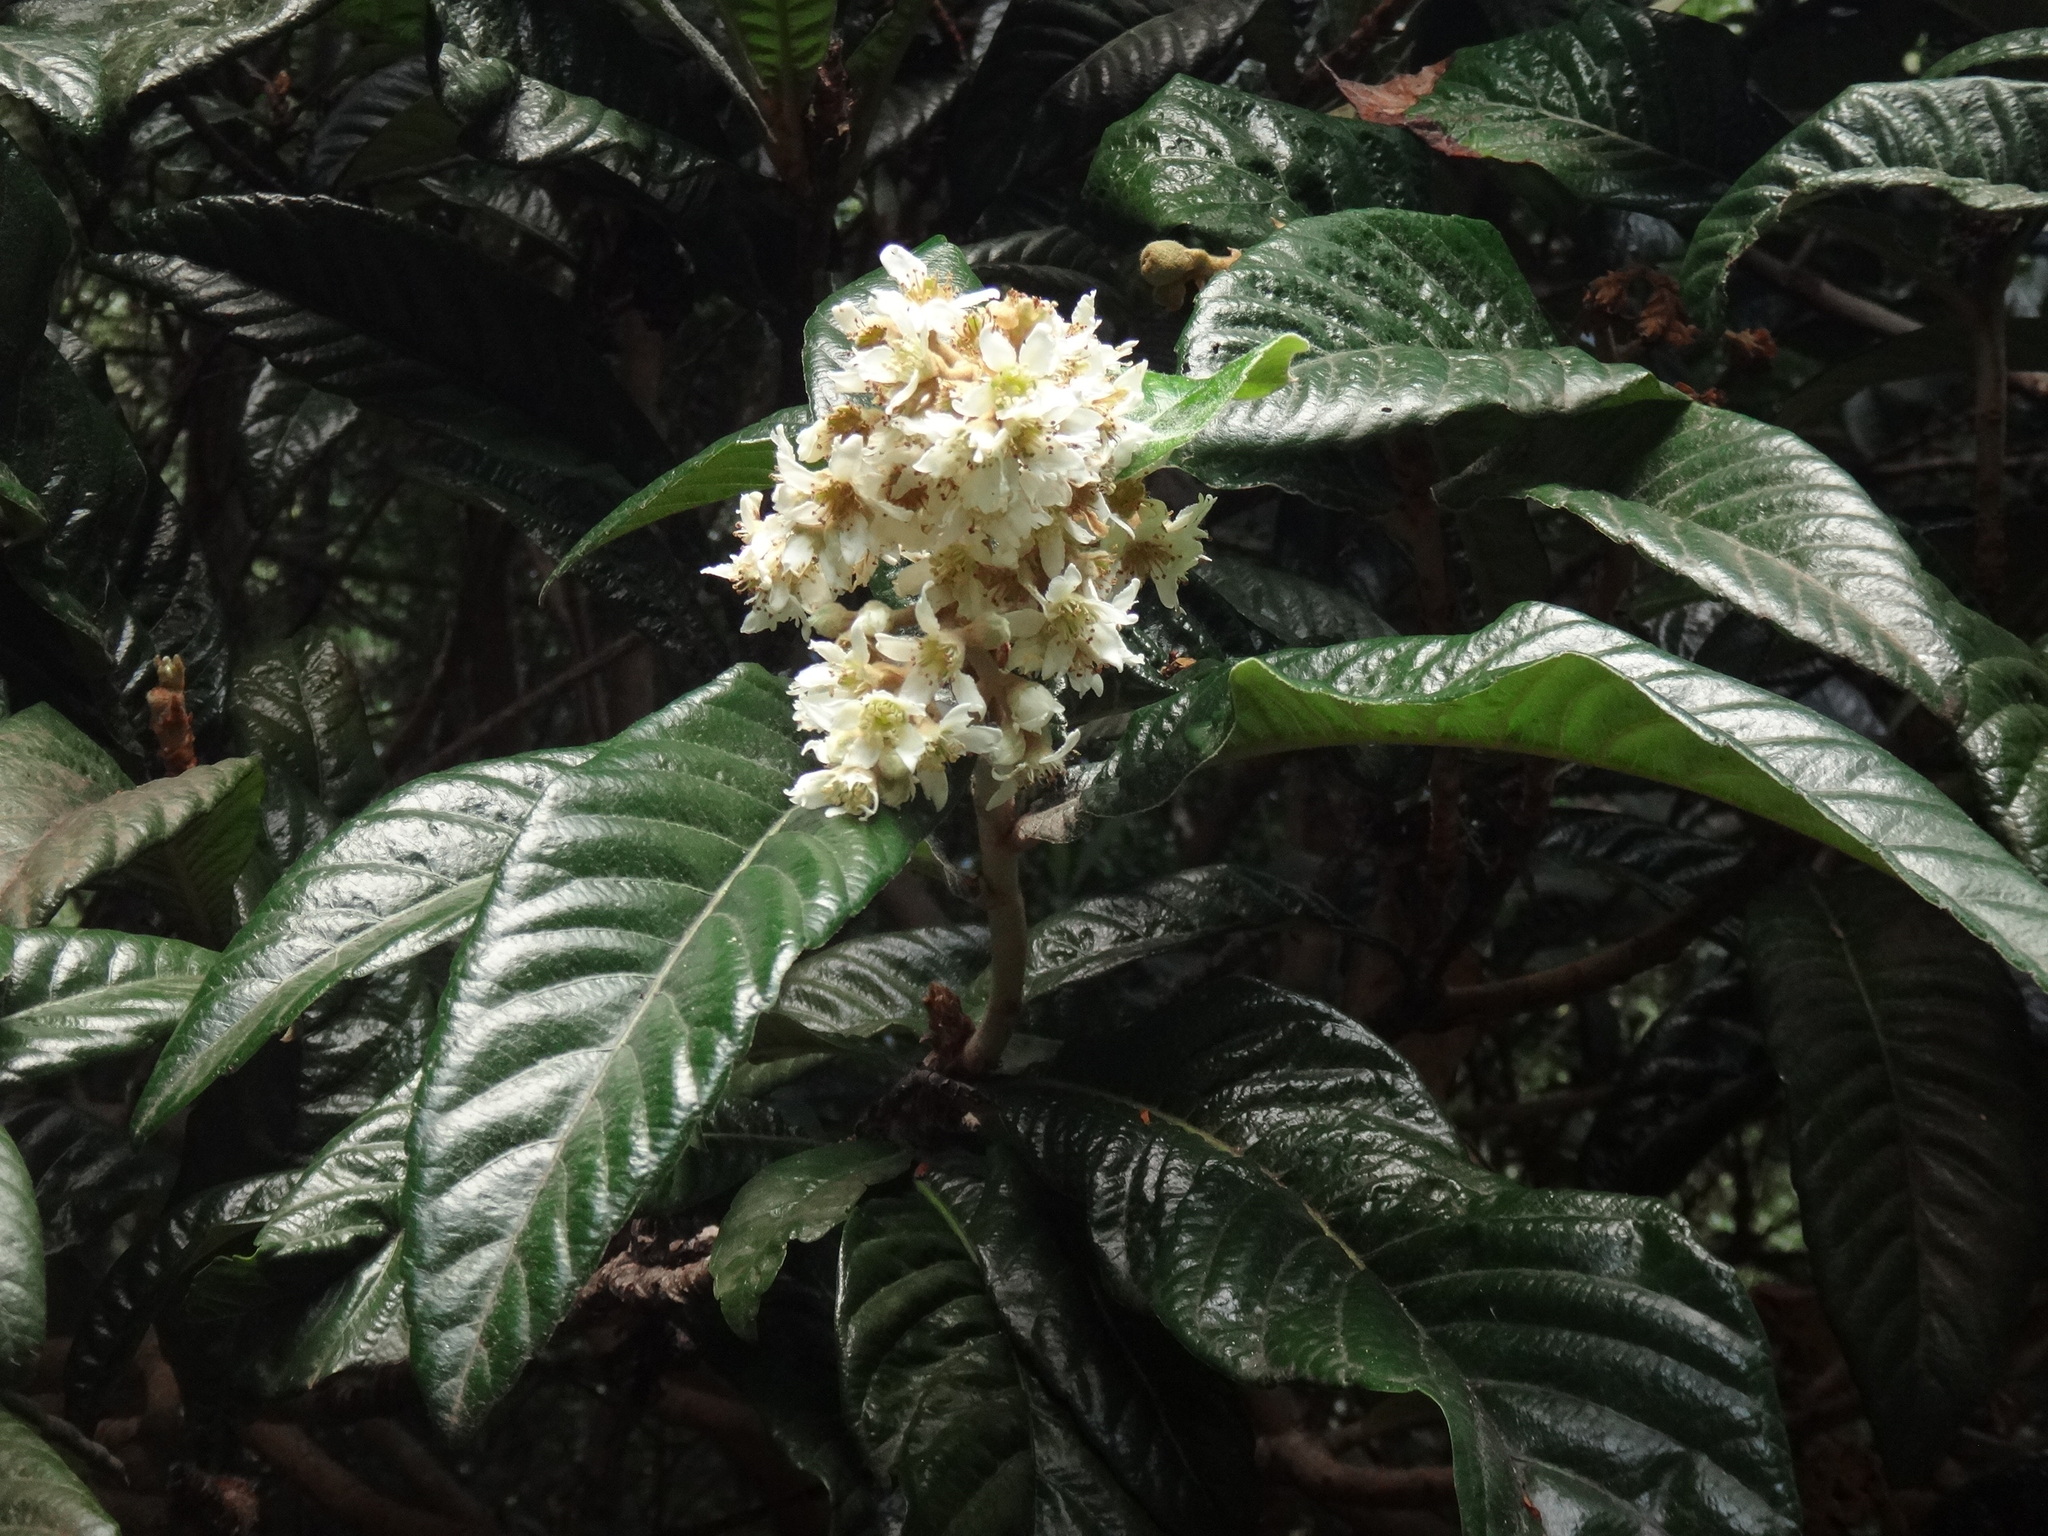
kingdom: Plantae
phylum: Tracheophyta
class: Magnoliopsida
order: Rosales
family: Rosaceae
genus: Rhaphiolepis
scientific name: Rhaphiolepis bibas
